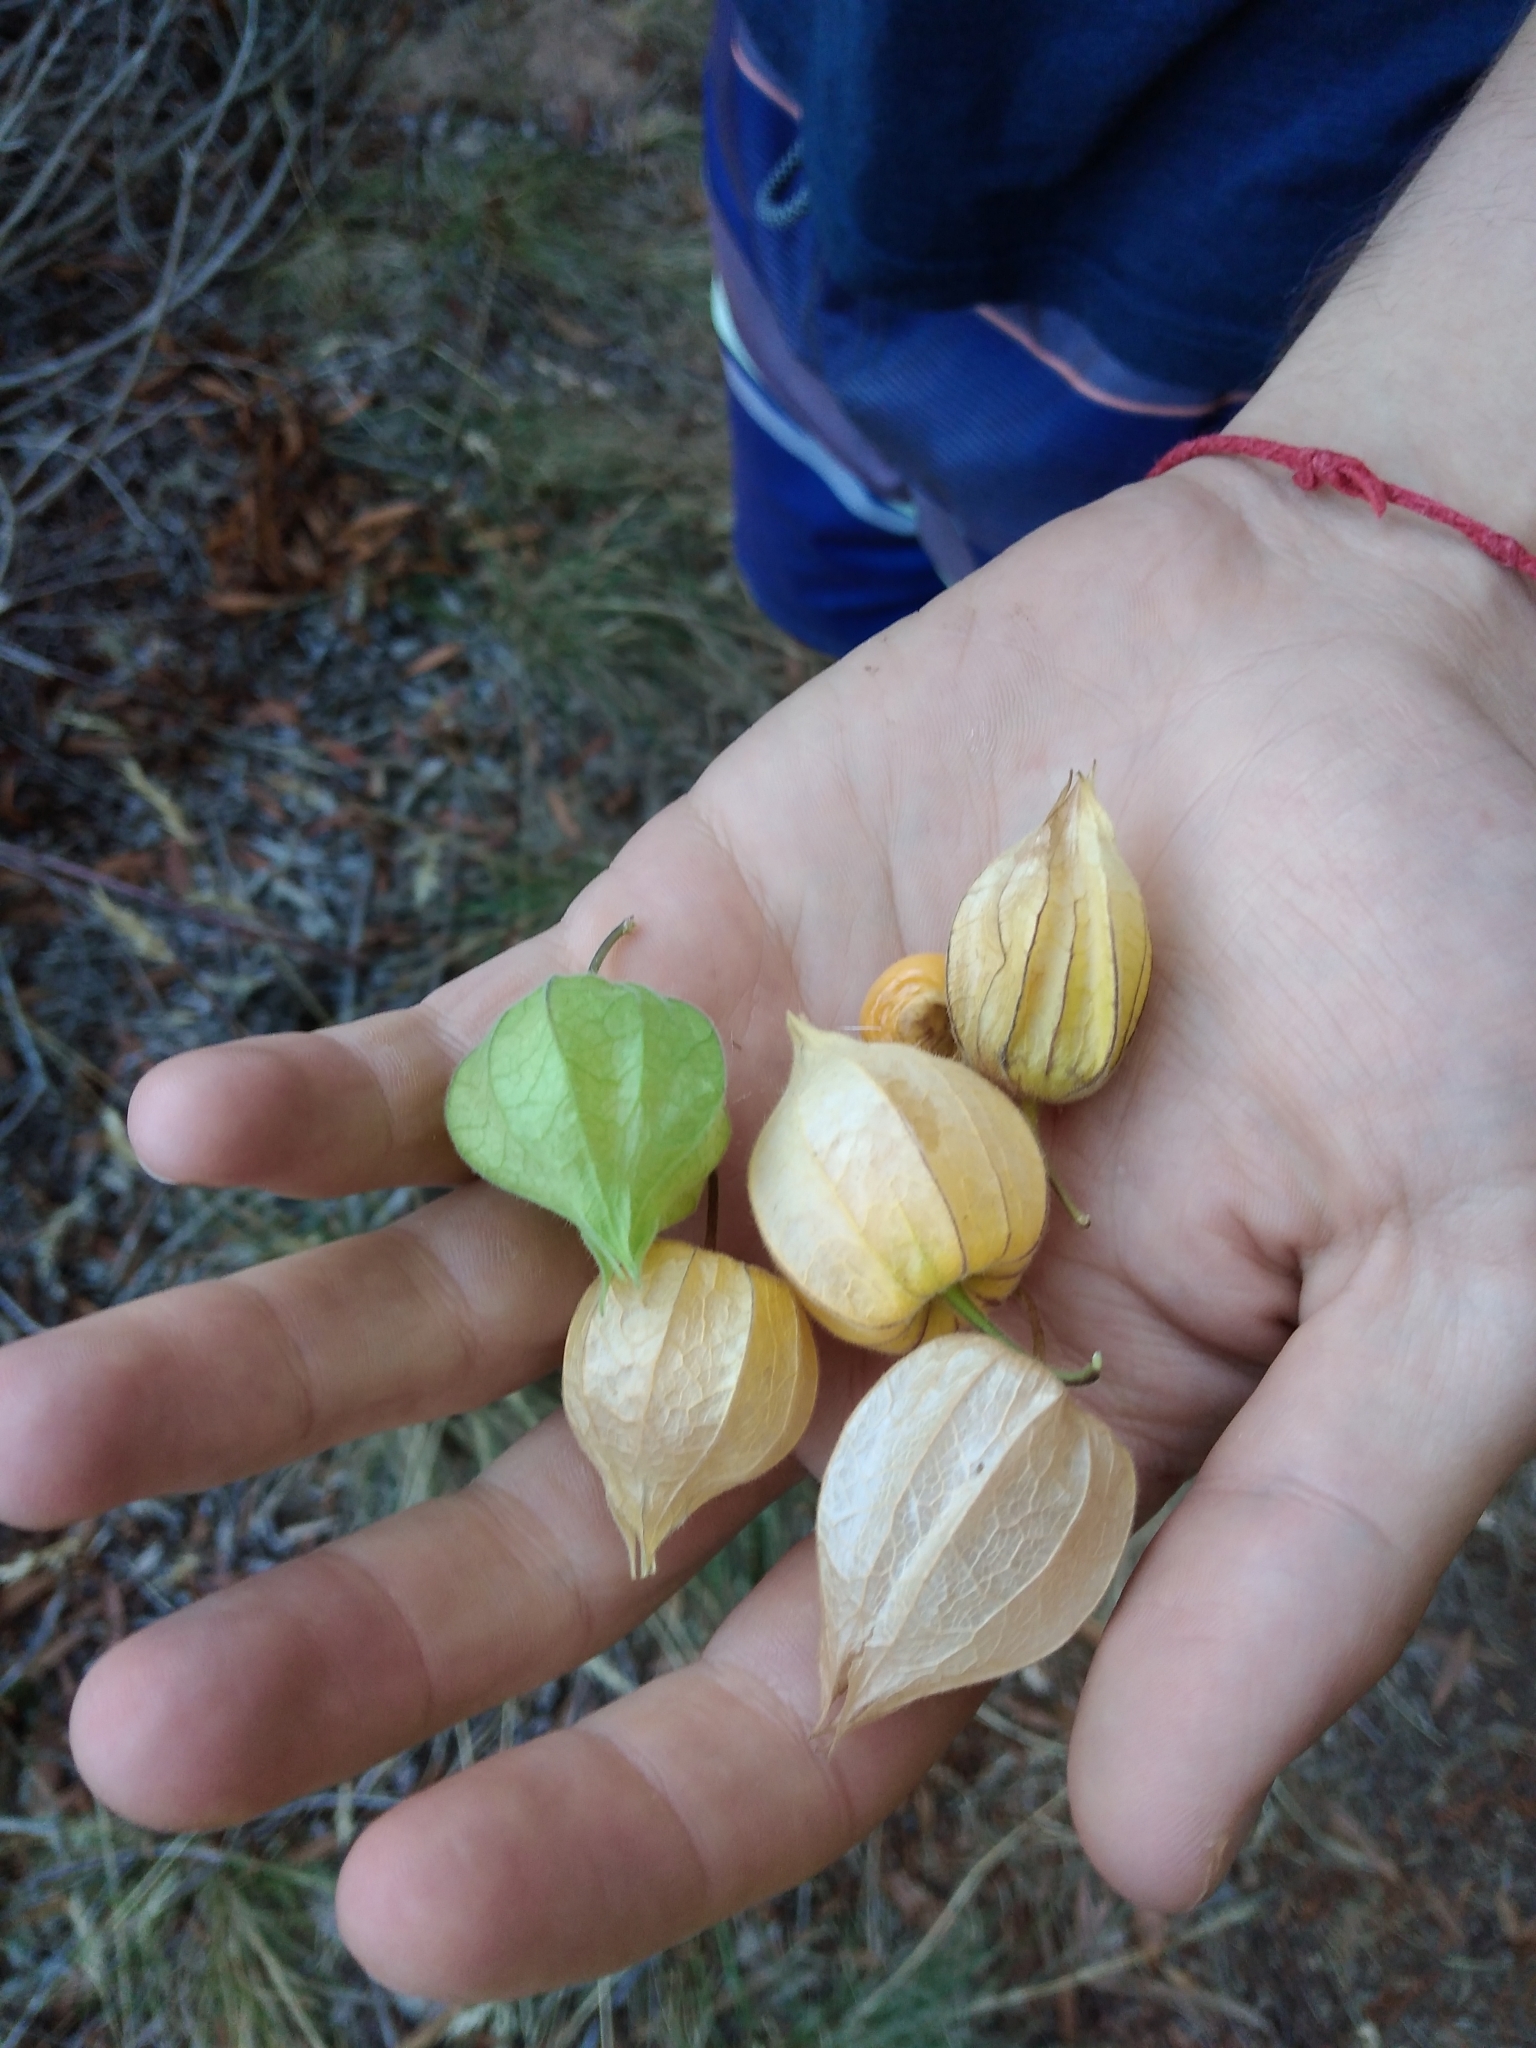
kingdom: Plantae
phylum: Tracheophyta
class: Magnoliopsida
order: Solanales
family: Solanaceae
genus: Physalis
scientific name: Physalis peruviana
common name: Cape-gooseberry
